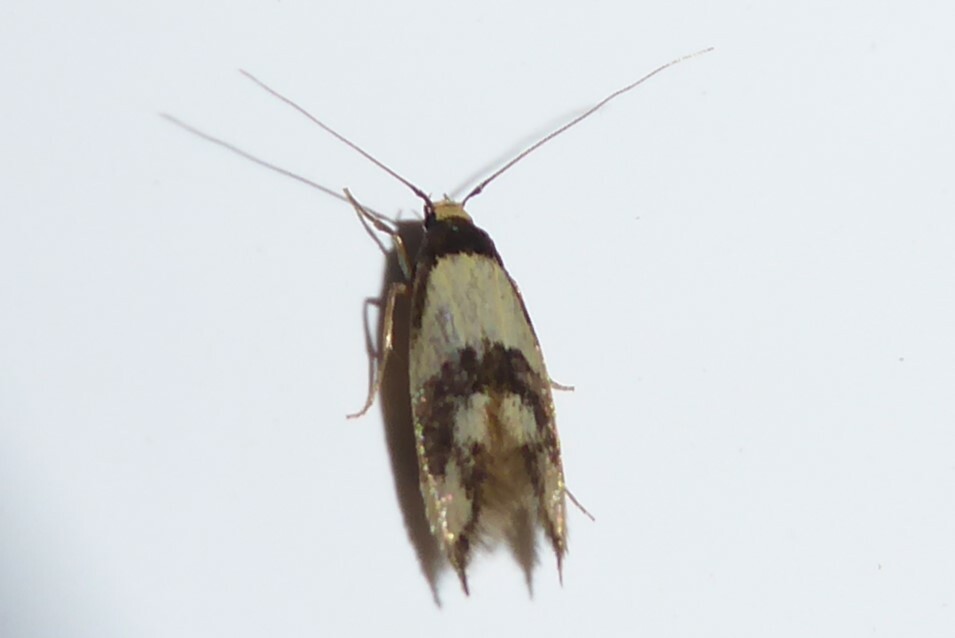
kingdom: Animalia
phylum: Arthropoda
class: Insecta
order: Lepidoptera
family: Tineidae
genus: Opogona
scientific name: Opogona comptella
